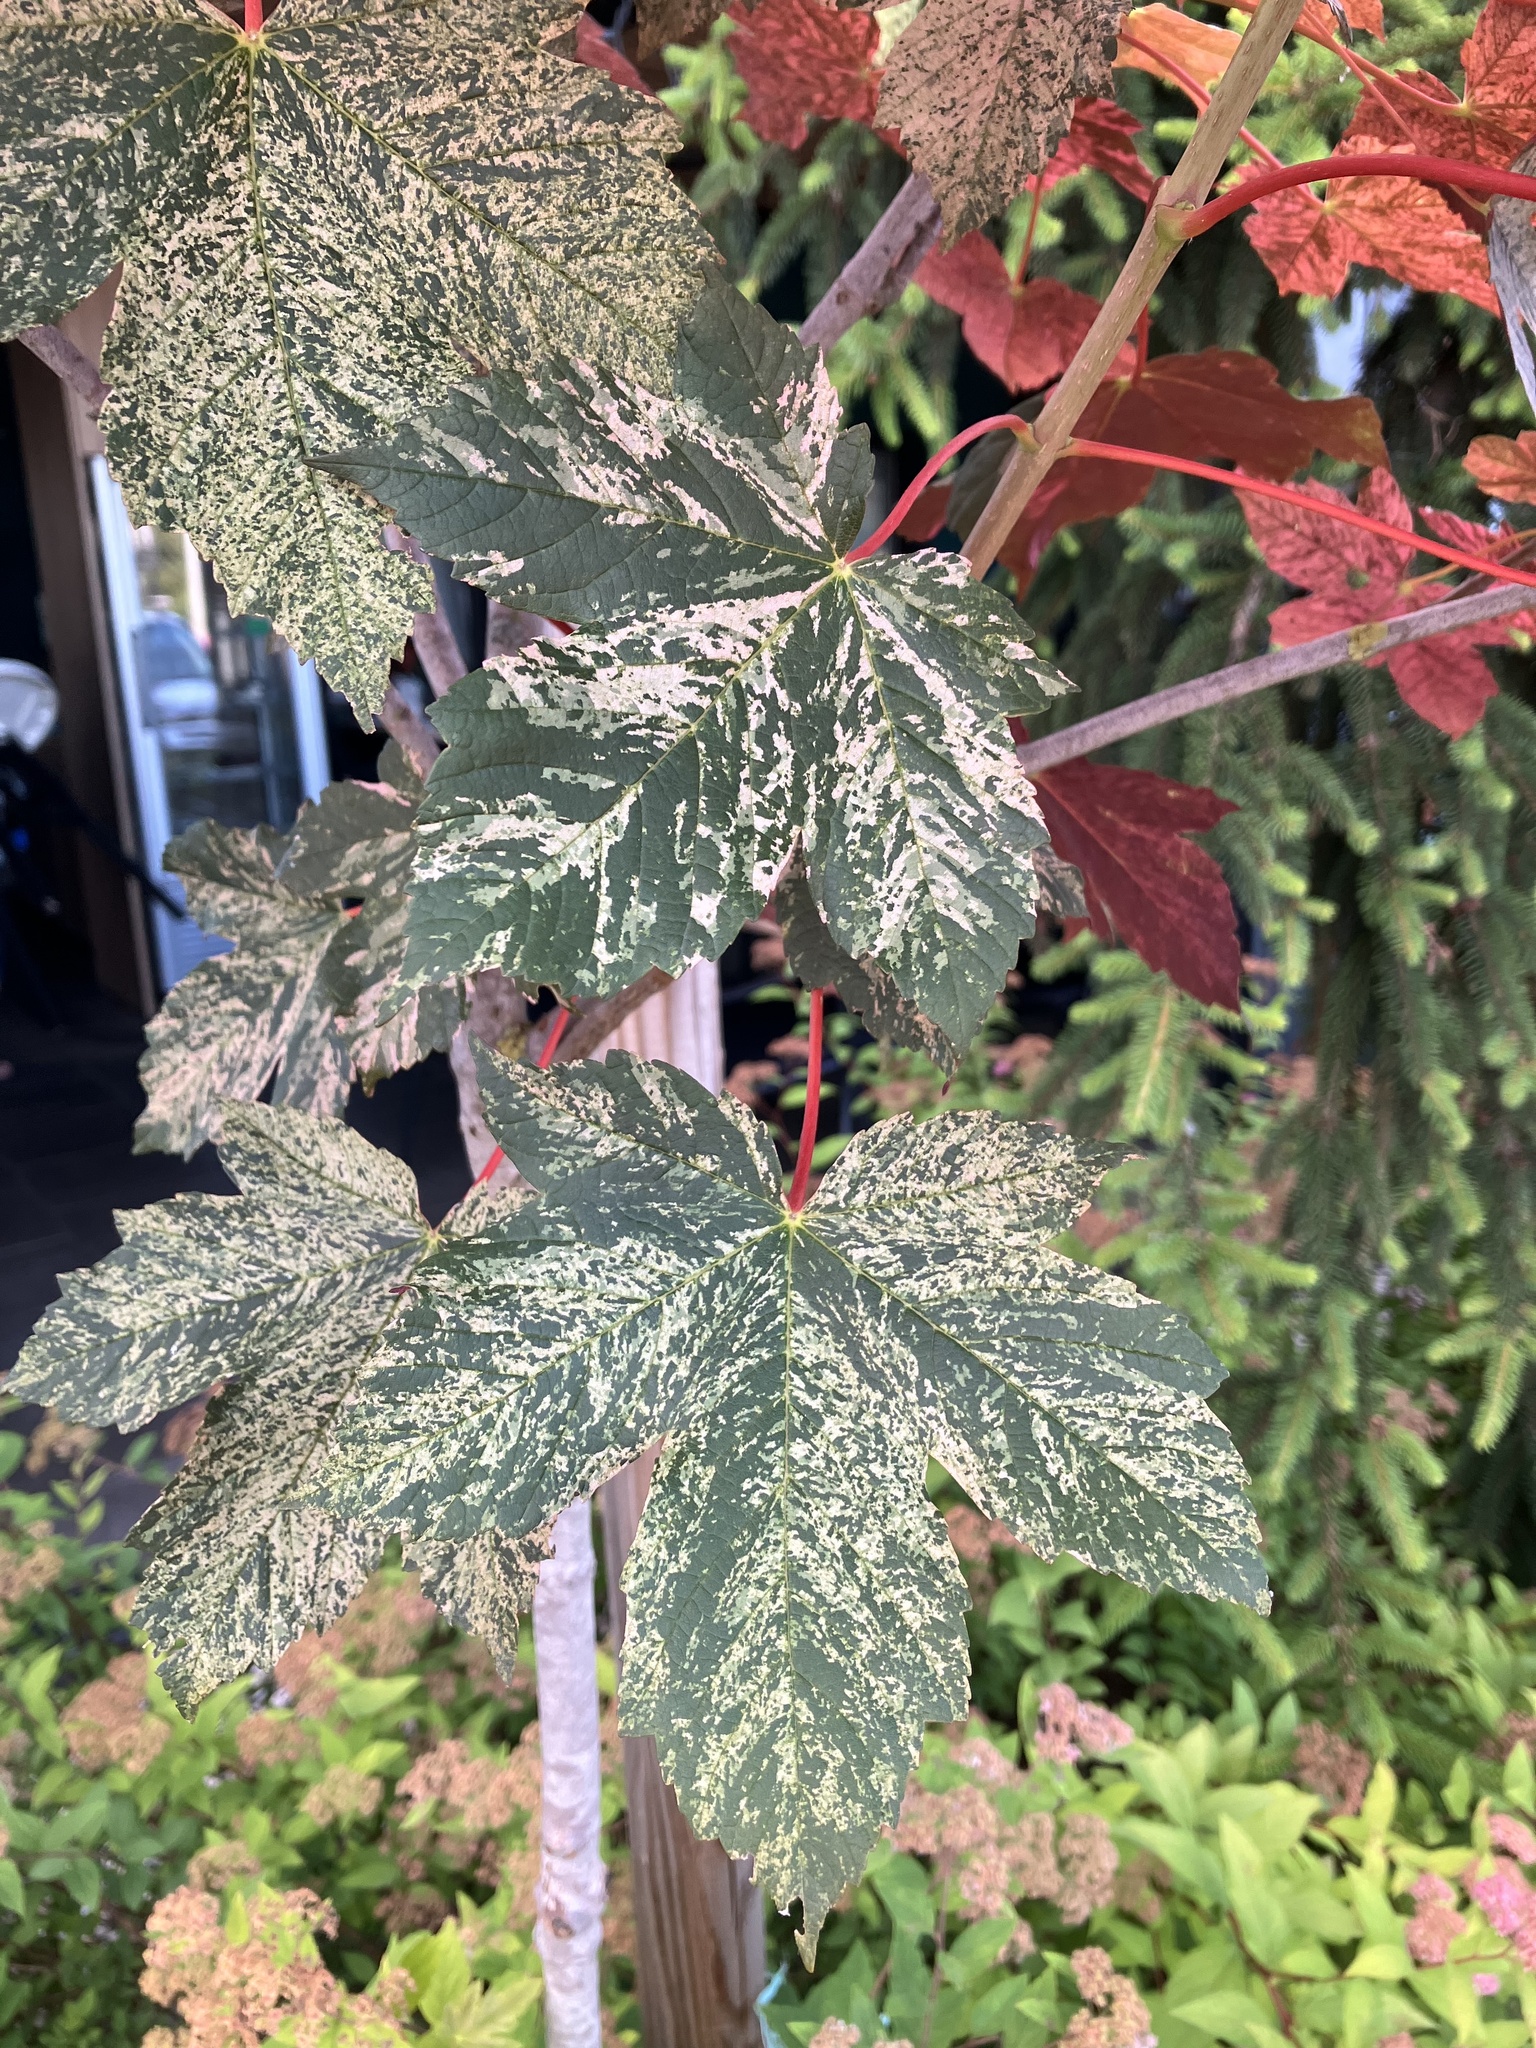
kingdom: Plantae
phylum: Tracheophyta
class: Magnoliopsida
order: Sapindales
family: Sapindaceae
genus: Acer
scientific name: Acer pseudoplatanus
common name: Sycamore
